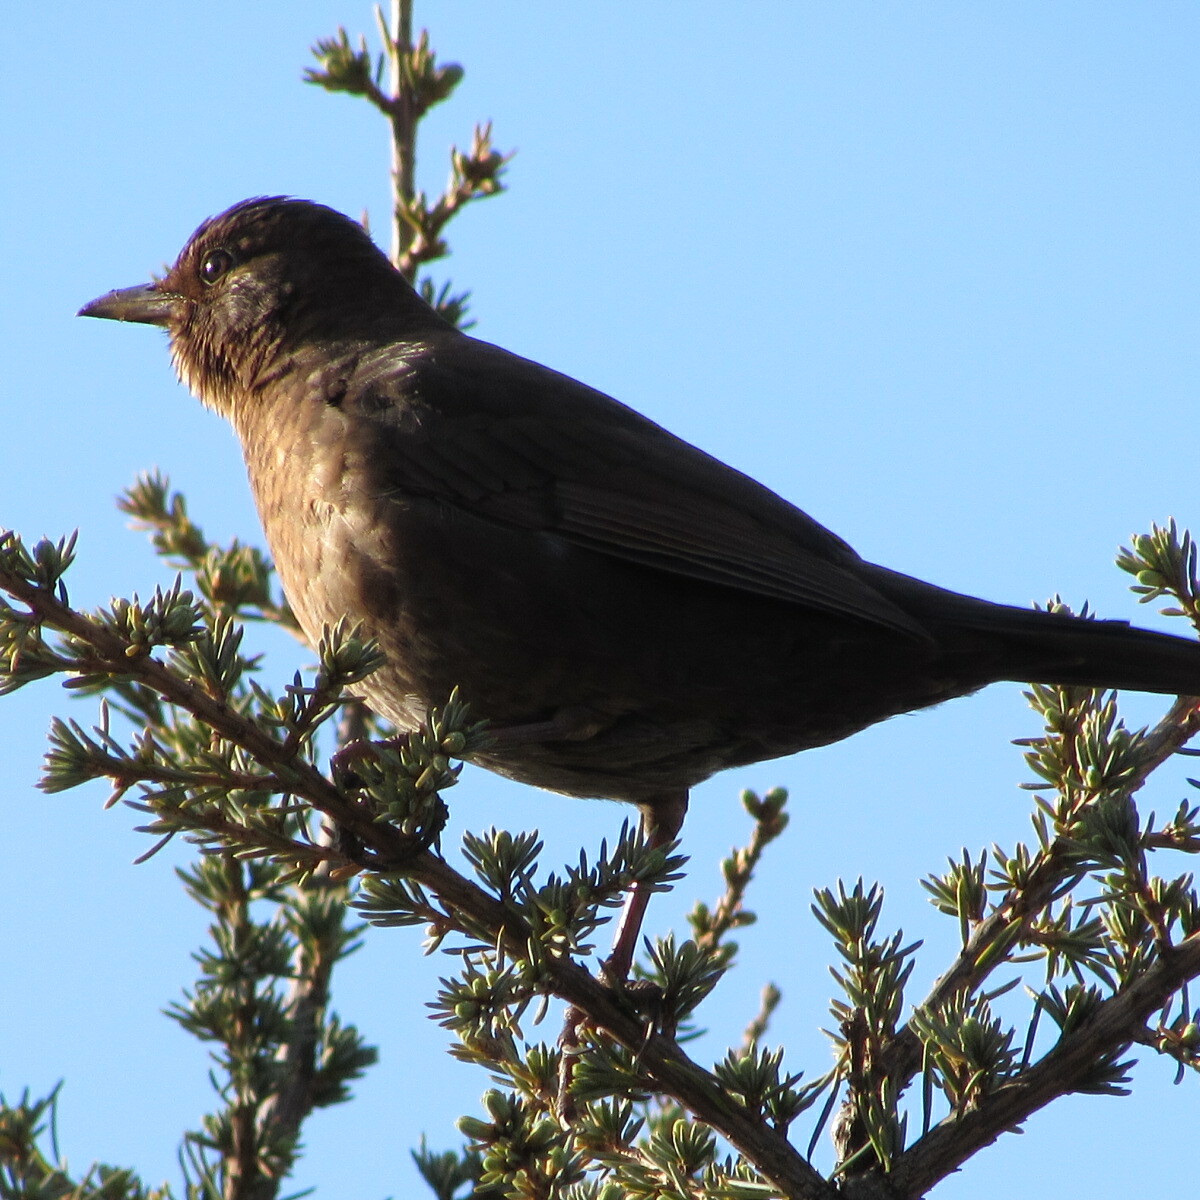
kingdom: Animalia
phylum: Chordata
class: Aves
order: Passeriformes
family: Turdidae
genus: Turdus
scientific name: Turdus merula
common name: Common blackbird
